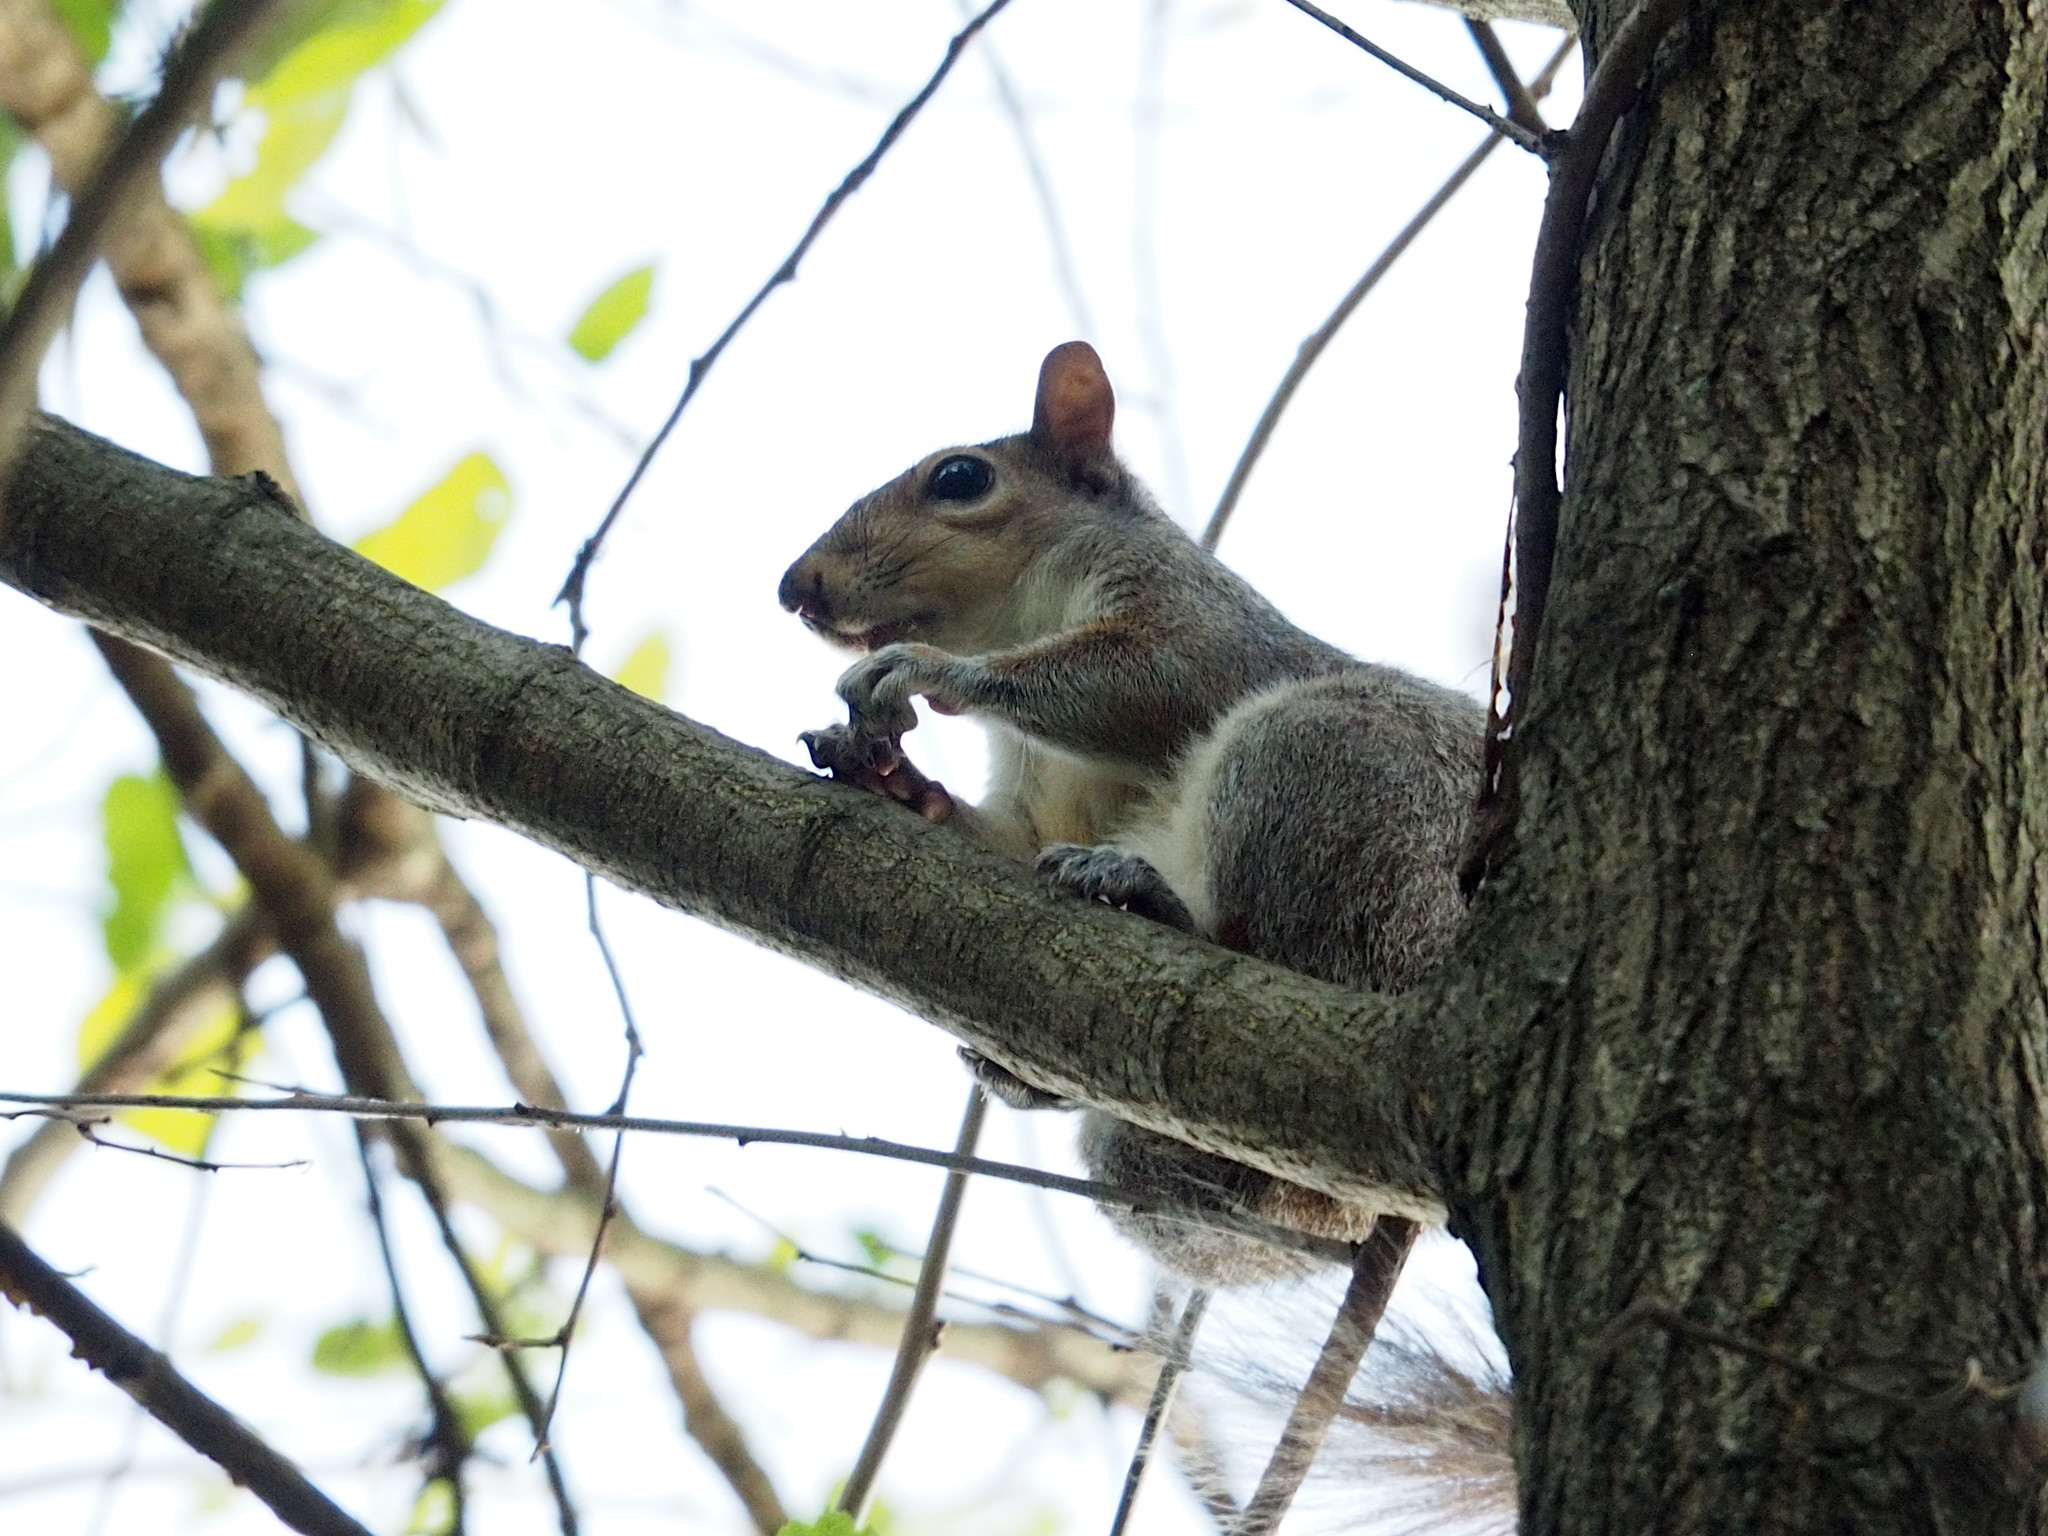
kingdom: Animalia
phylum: Chordata
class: Mammalia
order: Rodentia
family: Sciuridae
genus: Sciurus
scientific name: Sciurus carolinensis
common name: Eastern gray squirrel
